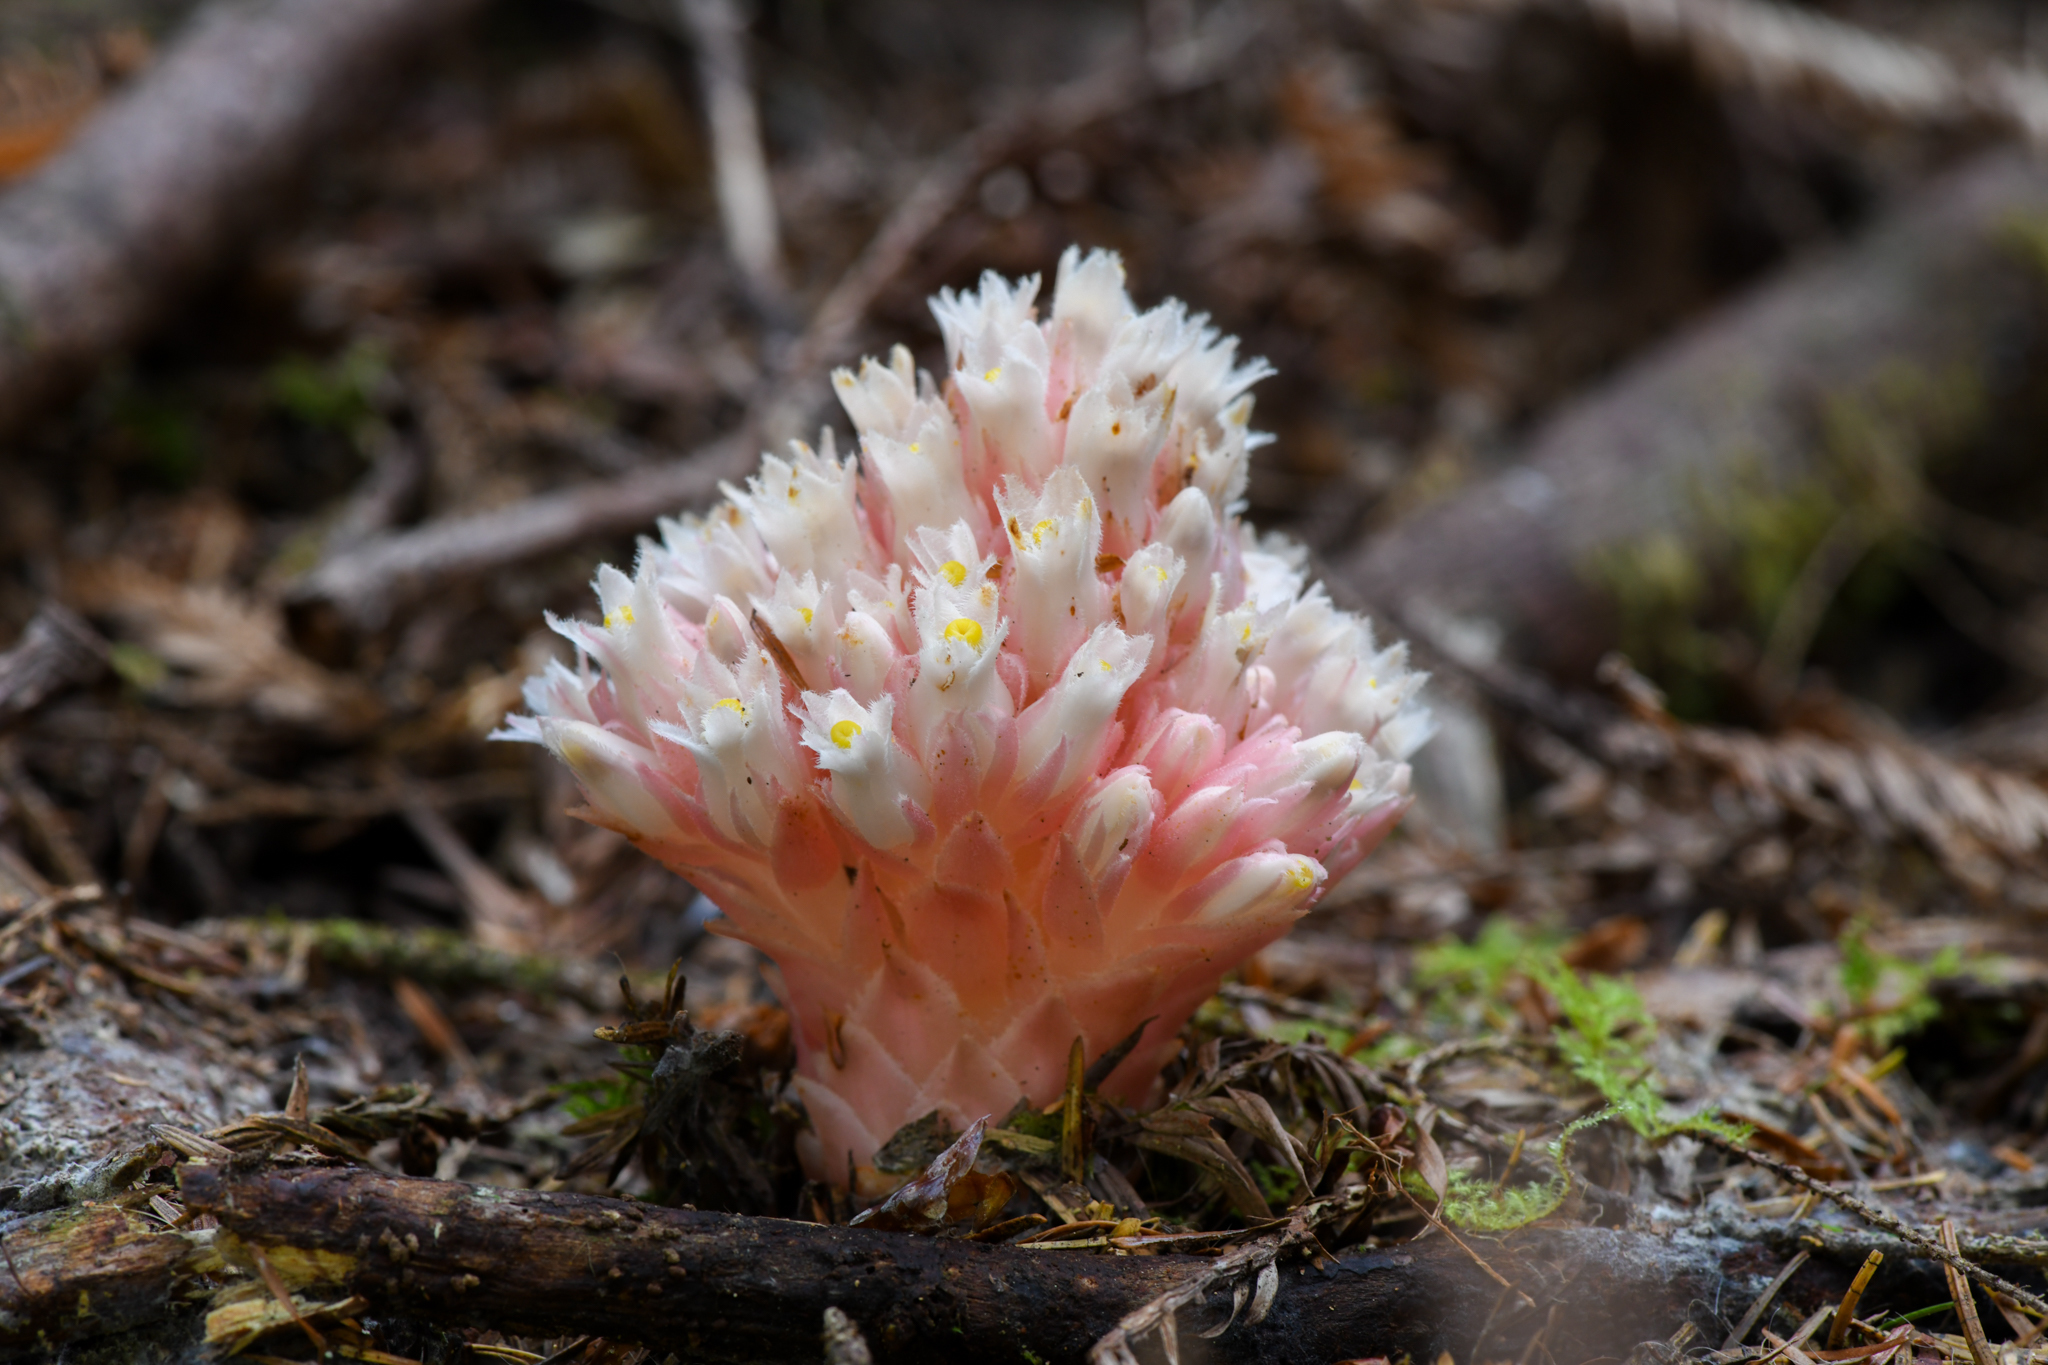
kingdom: Plantae
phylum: Tracheophyta
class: Magnoliopsida
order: Ericales
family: Ericaceae
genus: Hemitomes
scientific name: Hemitomes congestum
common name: Cone plant
